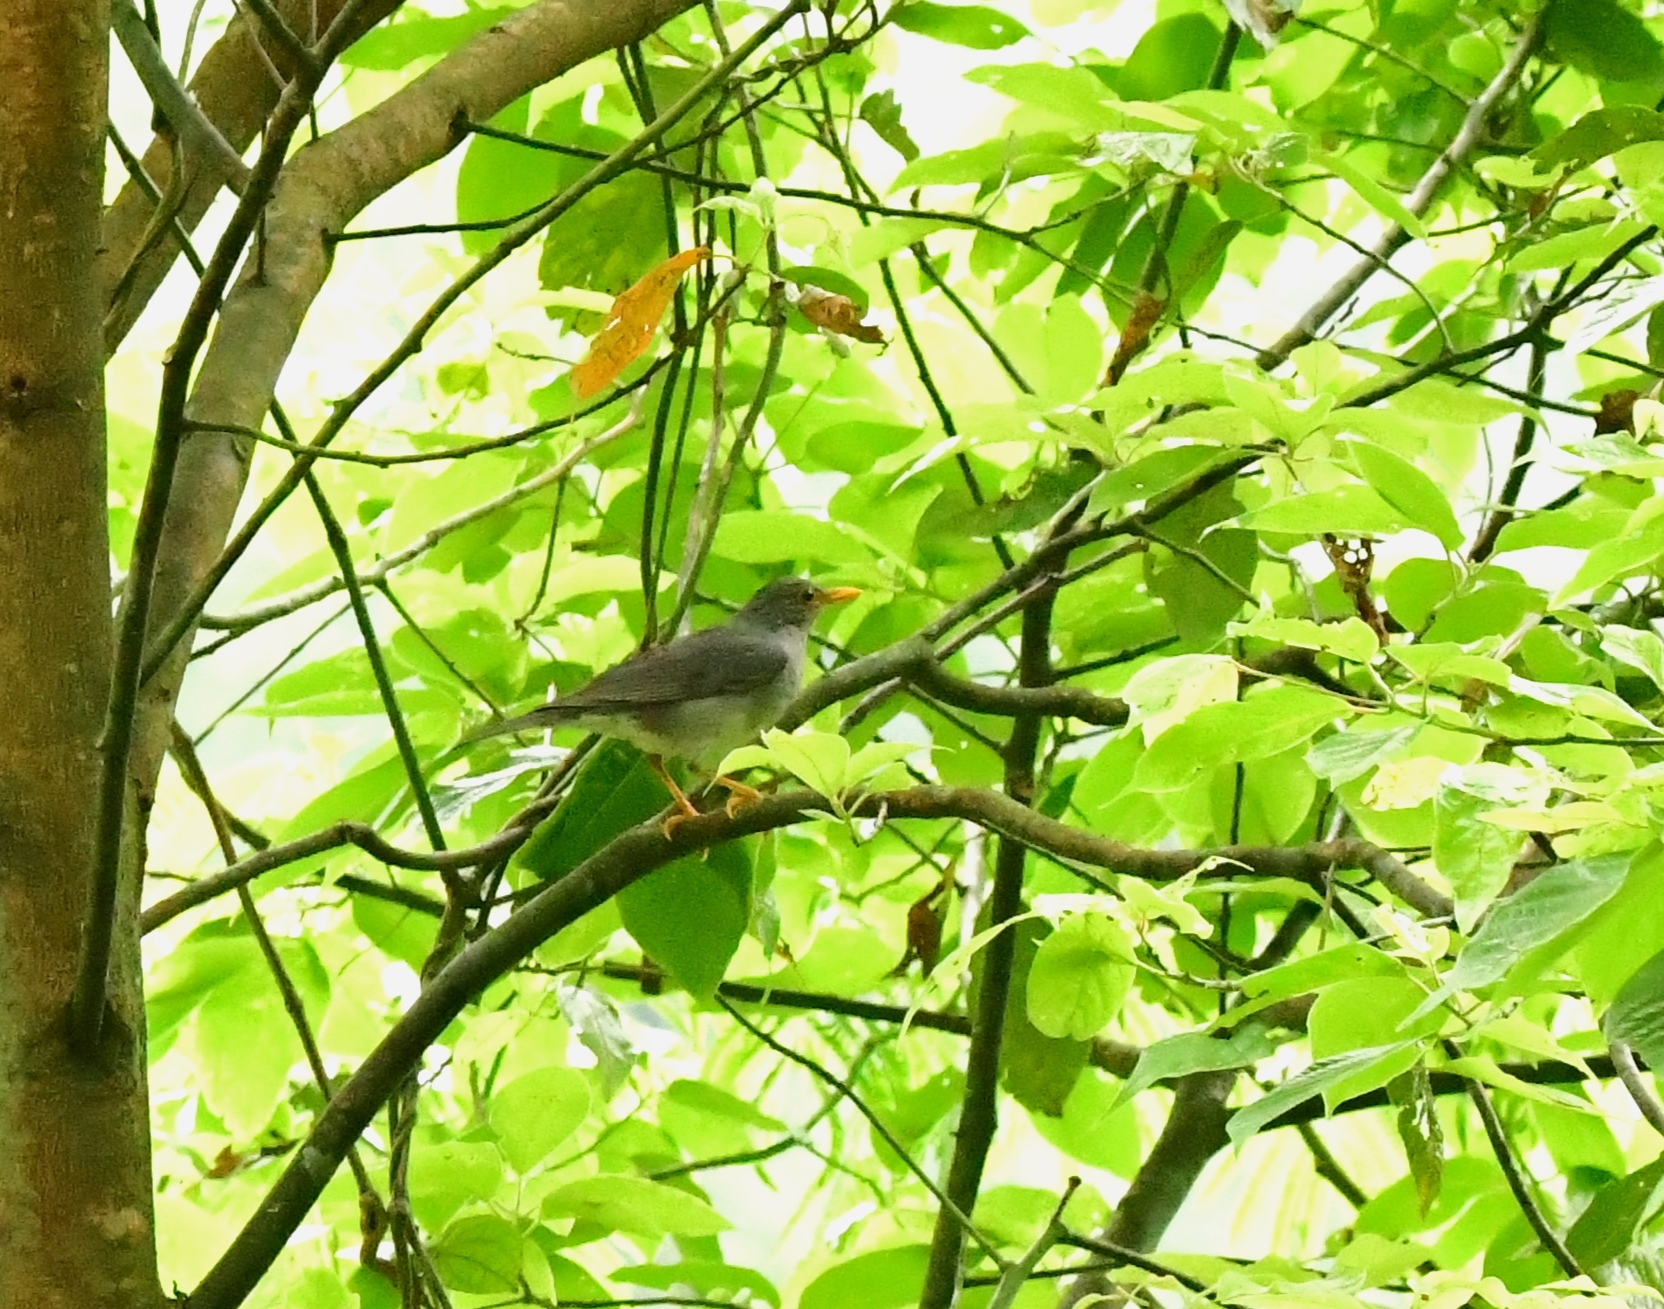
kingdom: Animalia
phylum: Chordata
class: Aves
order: Passeriformes
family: Turdidae
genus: Turdus
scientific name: Turdus unicolor
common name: Tickell's thrush
